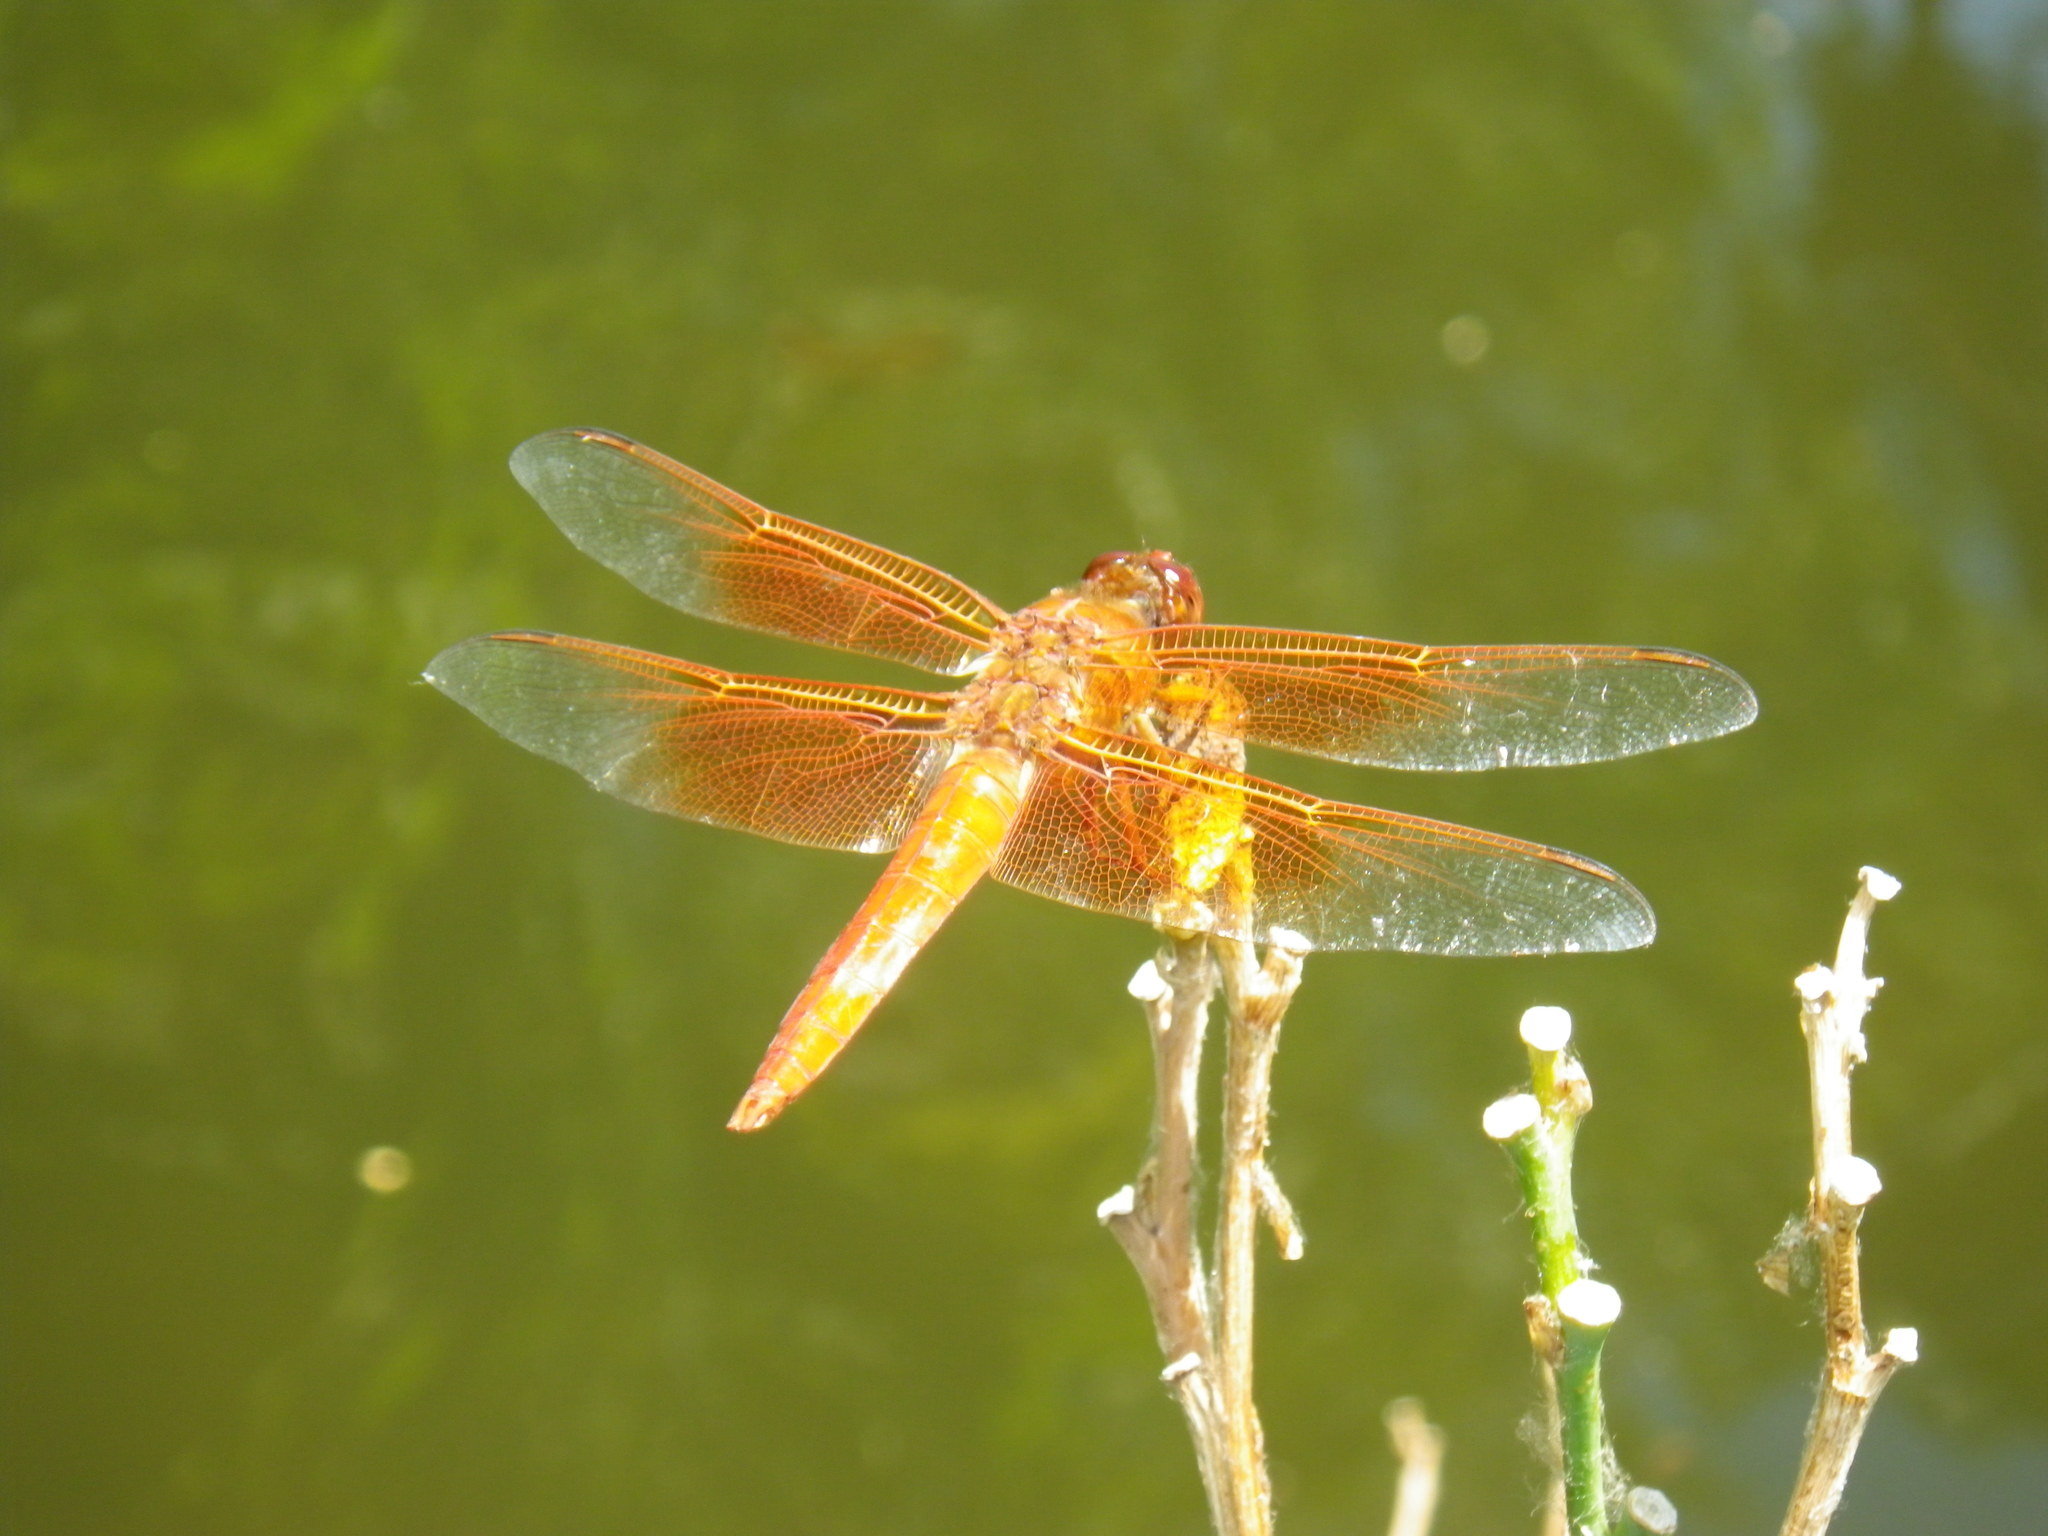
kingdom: Animalia
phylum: Arthropoda
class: Insecta
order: Odonata
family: Libellulidae
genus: Libellula
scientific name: Libellula saturata
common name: Flame skimmer
